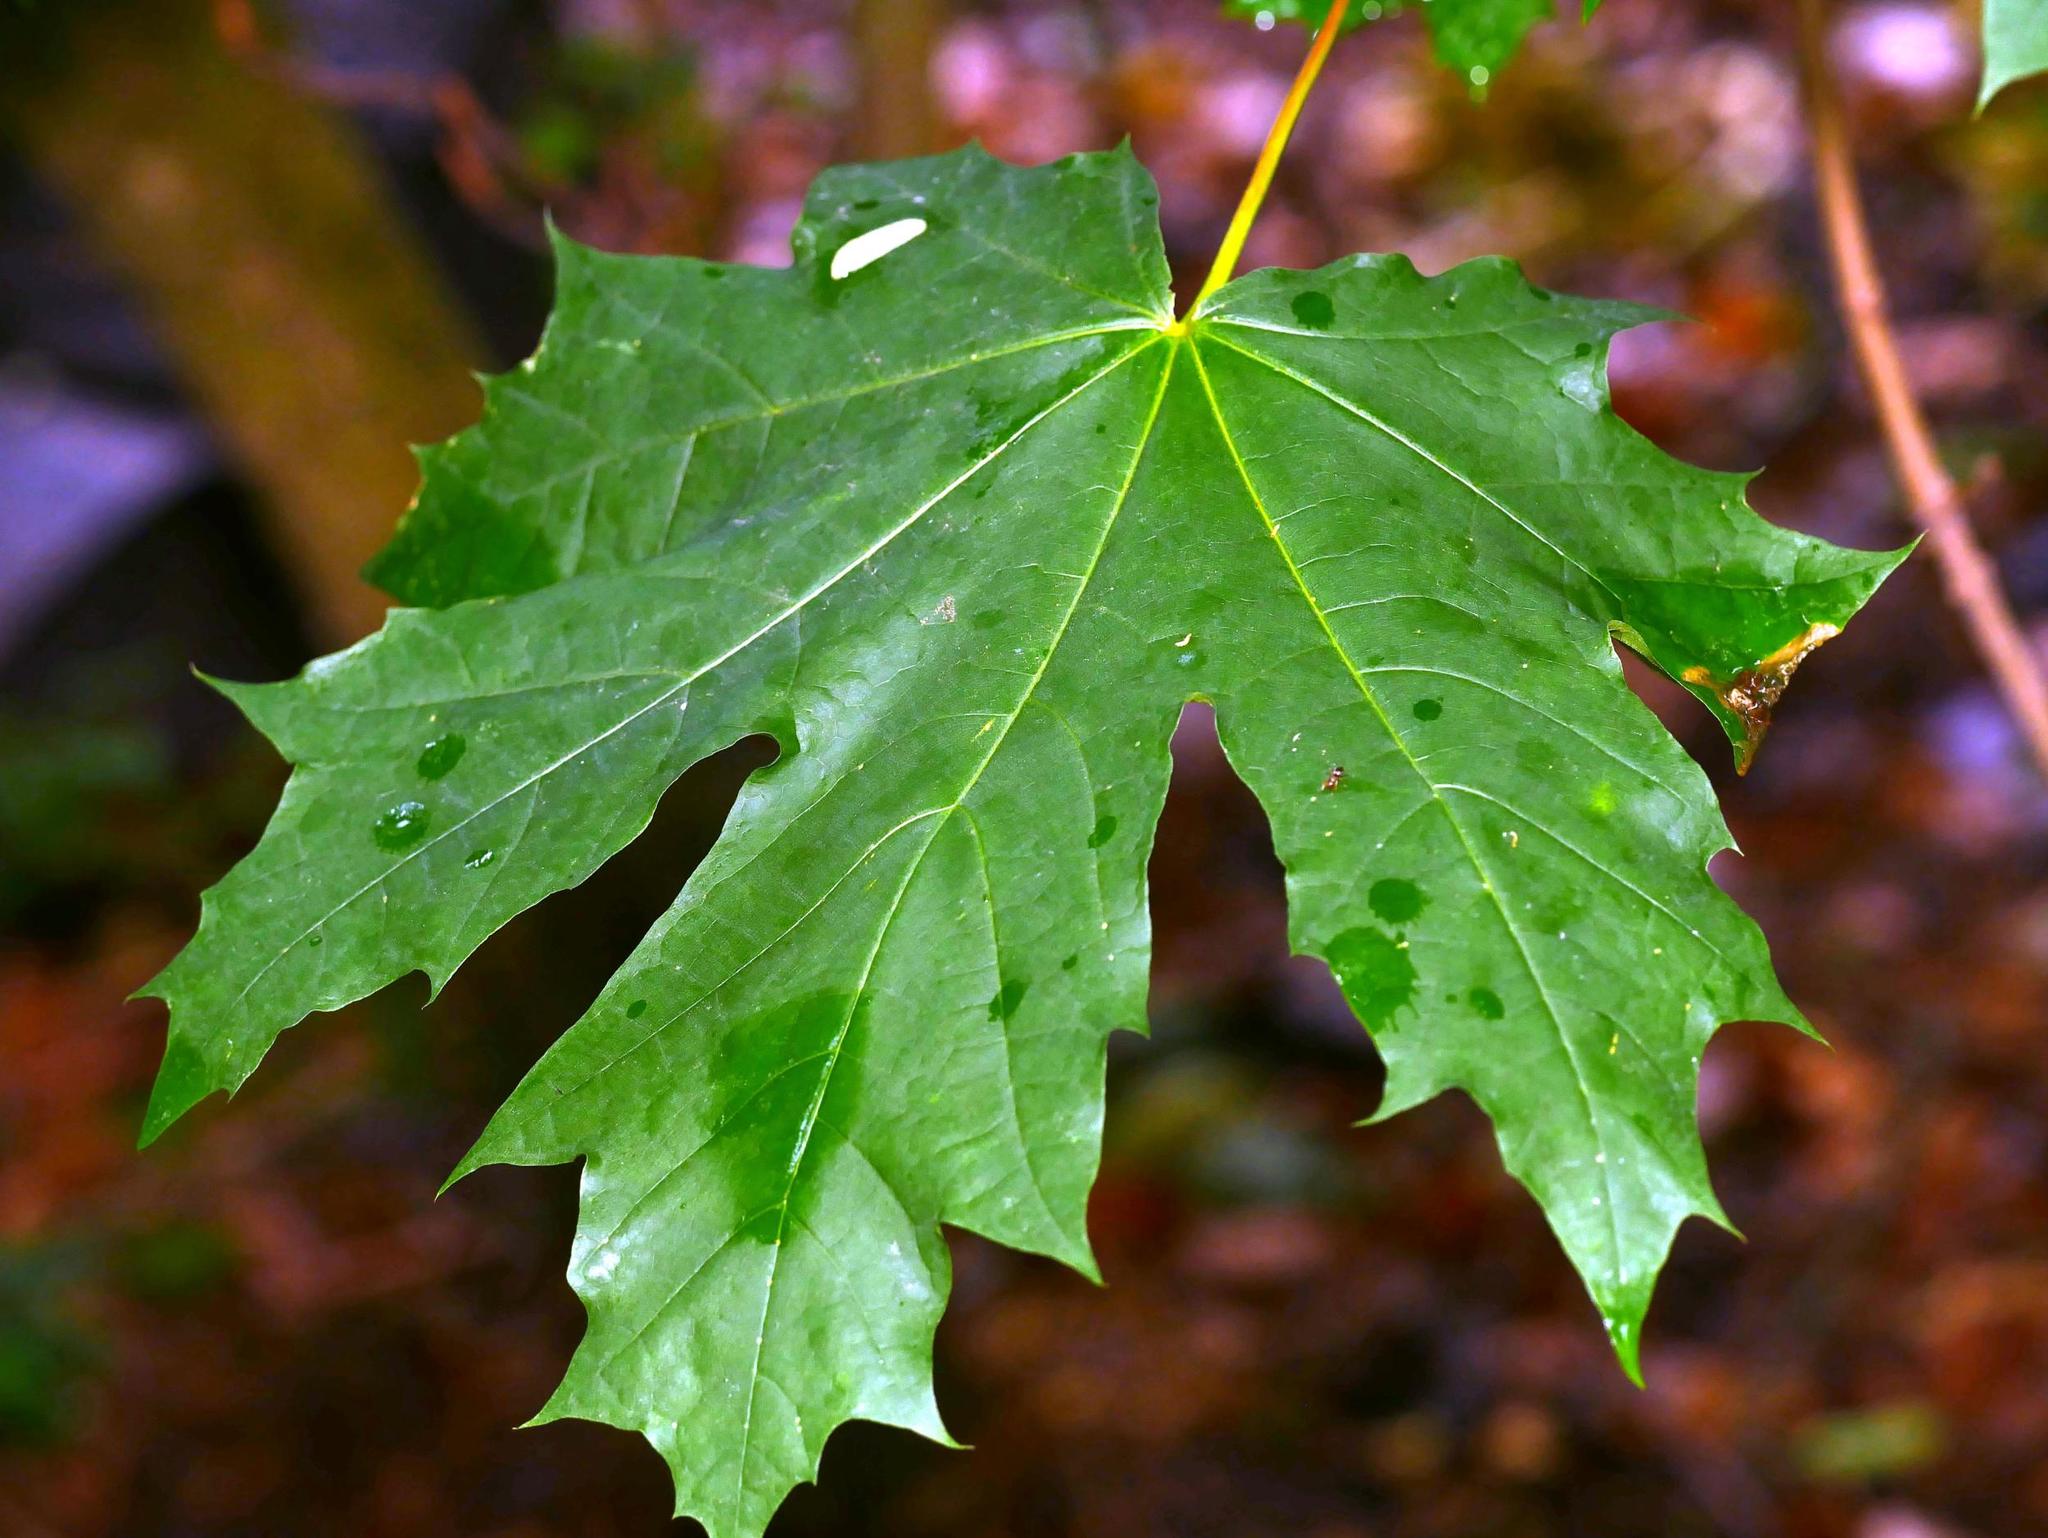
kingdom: Plantae
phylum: Tracheophyta
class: Magnoliopsida
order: Sapindales
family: Sapindaceae
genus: Acer
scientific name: Acer platanoides
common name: Norway maple
